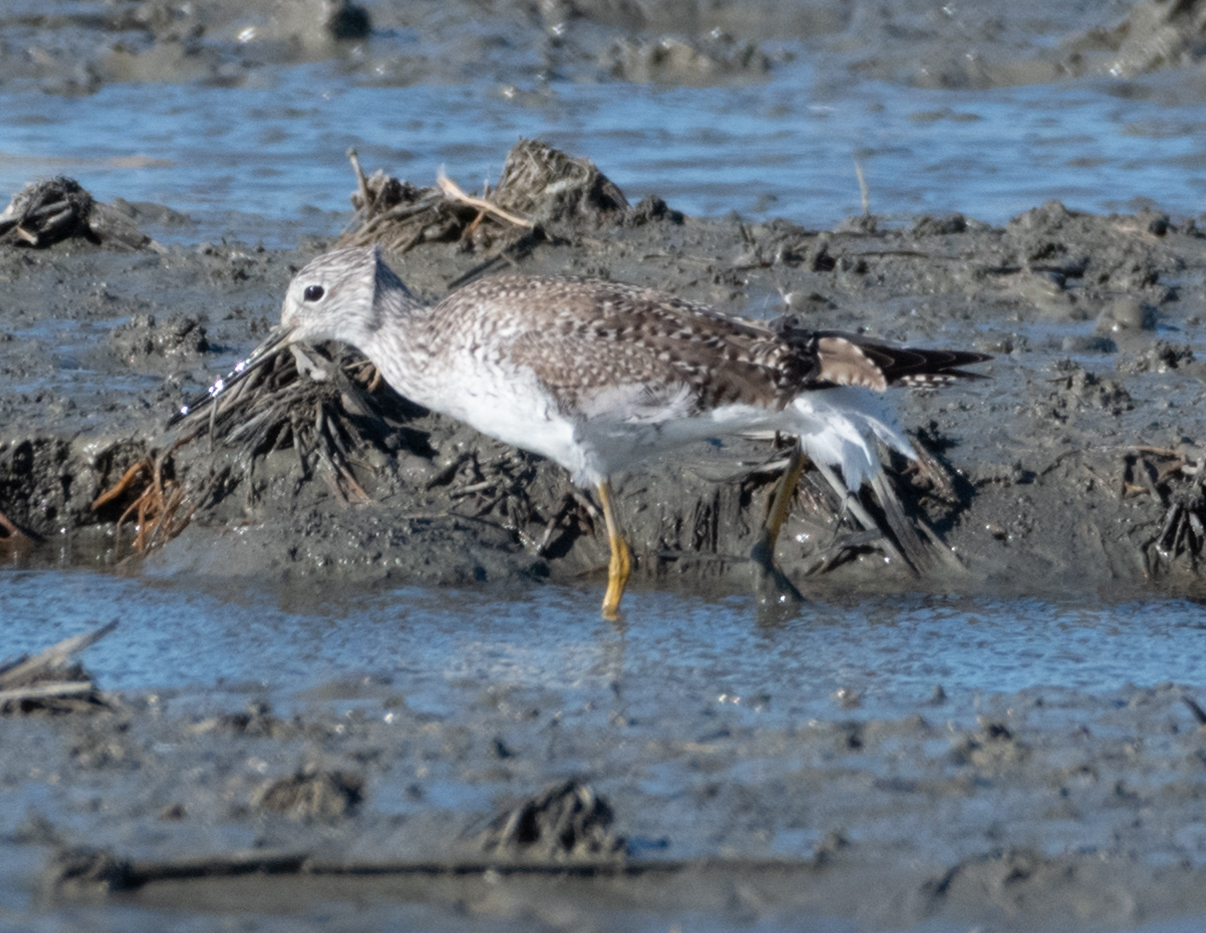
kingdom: Animalia
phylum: Chordata
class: Aves
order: Charadriiformes
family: Scolopacidae
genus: Tringa
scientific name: Tringa melanoleuca
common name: Greater yellowlegs
